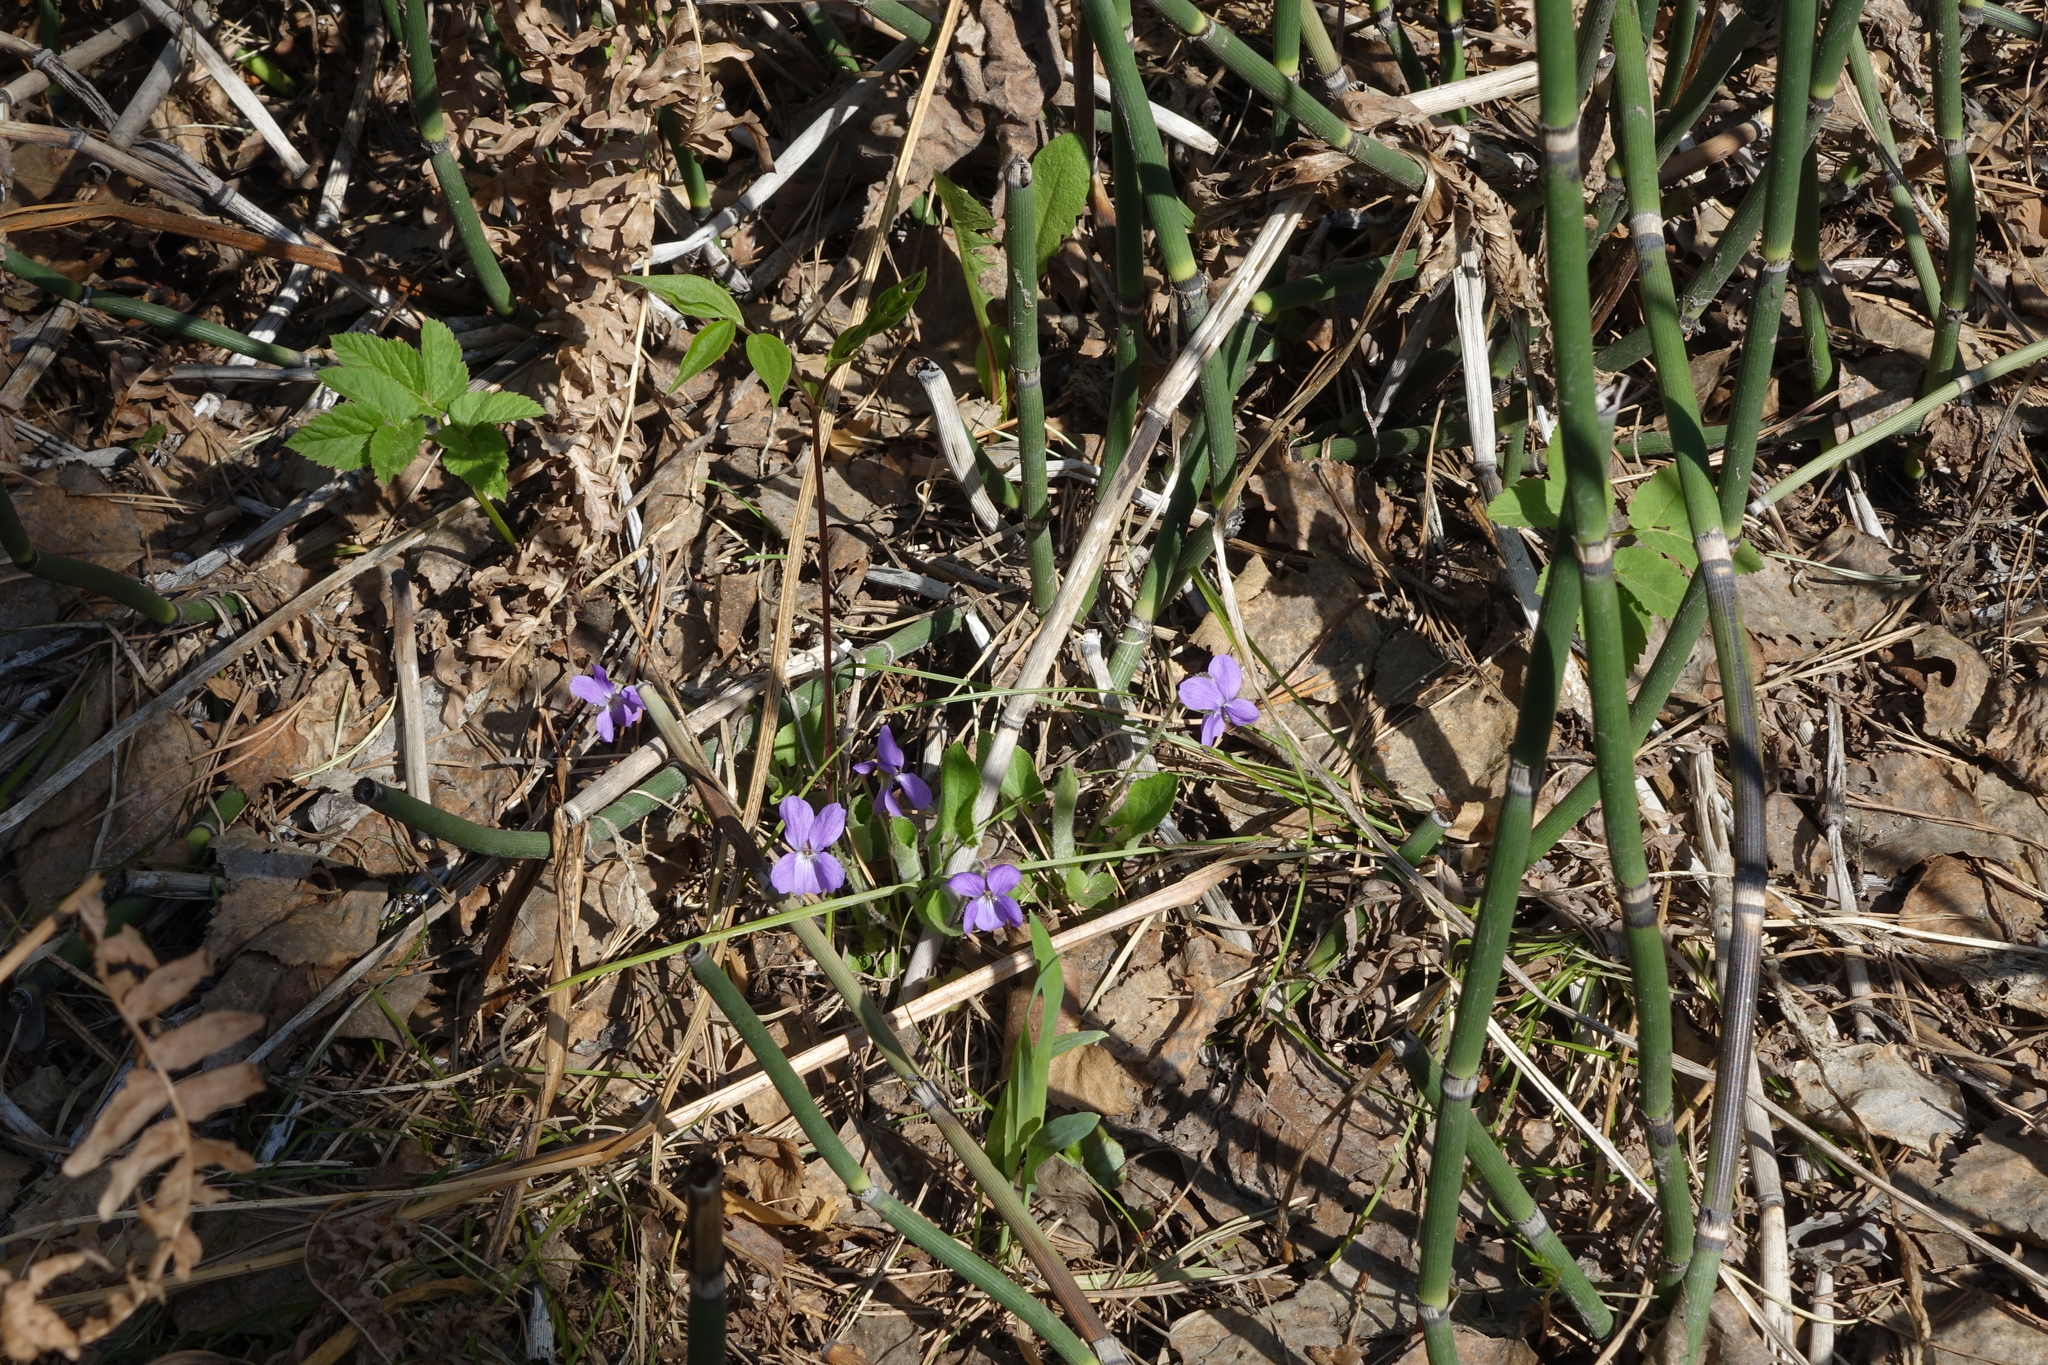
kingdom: Plantae
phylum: Tracheophyta
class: Magnoliopsida
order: Malpighiales
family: Violaceae
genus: Viola
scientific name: Viola hirta
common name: Hairy violet
